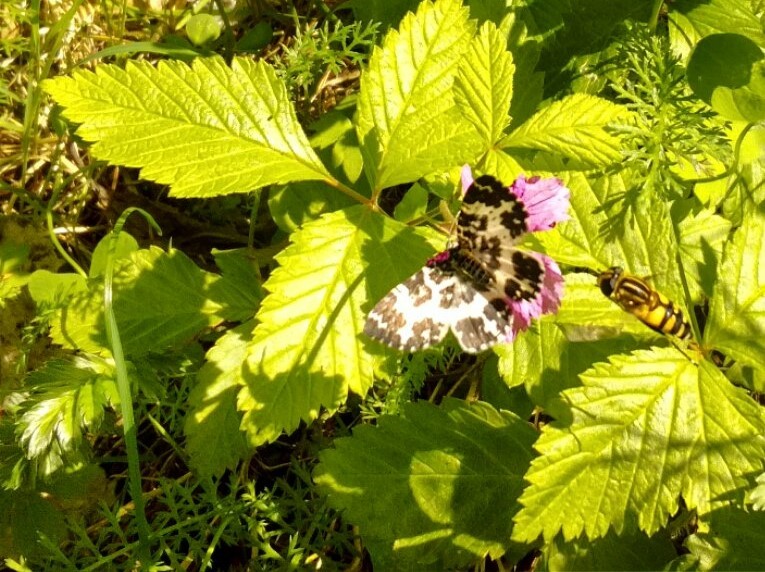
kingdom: Animalia
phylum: Arthropoda
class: Insecta
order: Lepidoptera
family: Geometridae
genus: Rheumaptera
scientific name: Rheumaptera hastata
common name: Argent & sable
